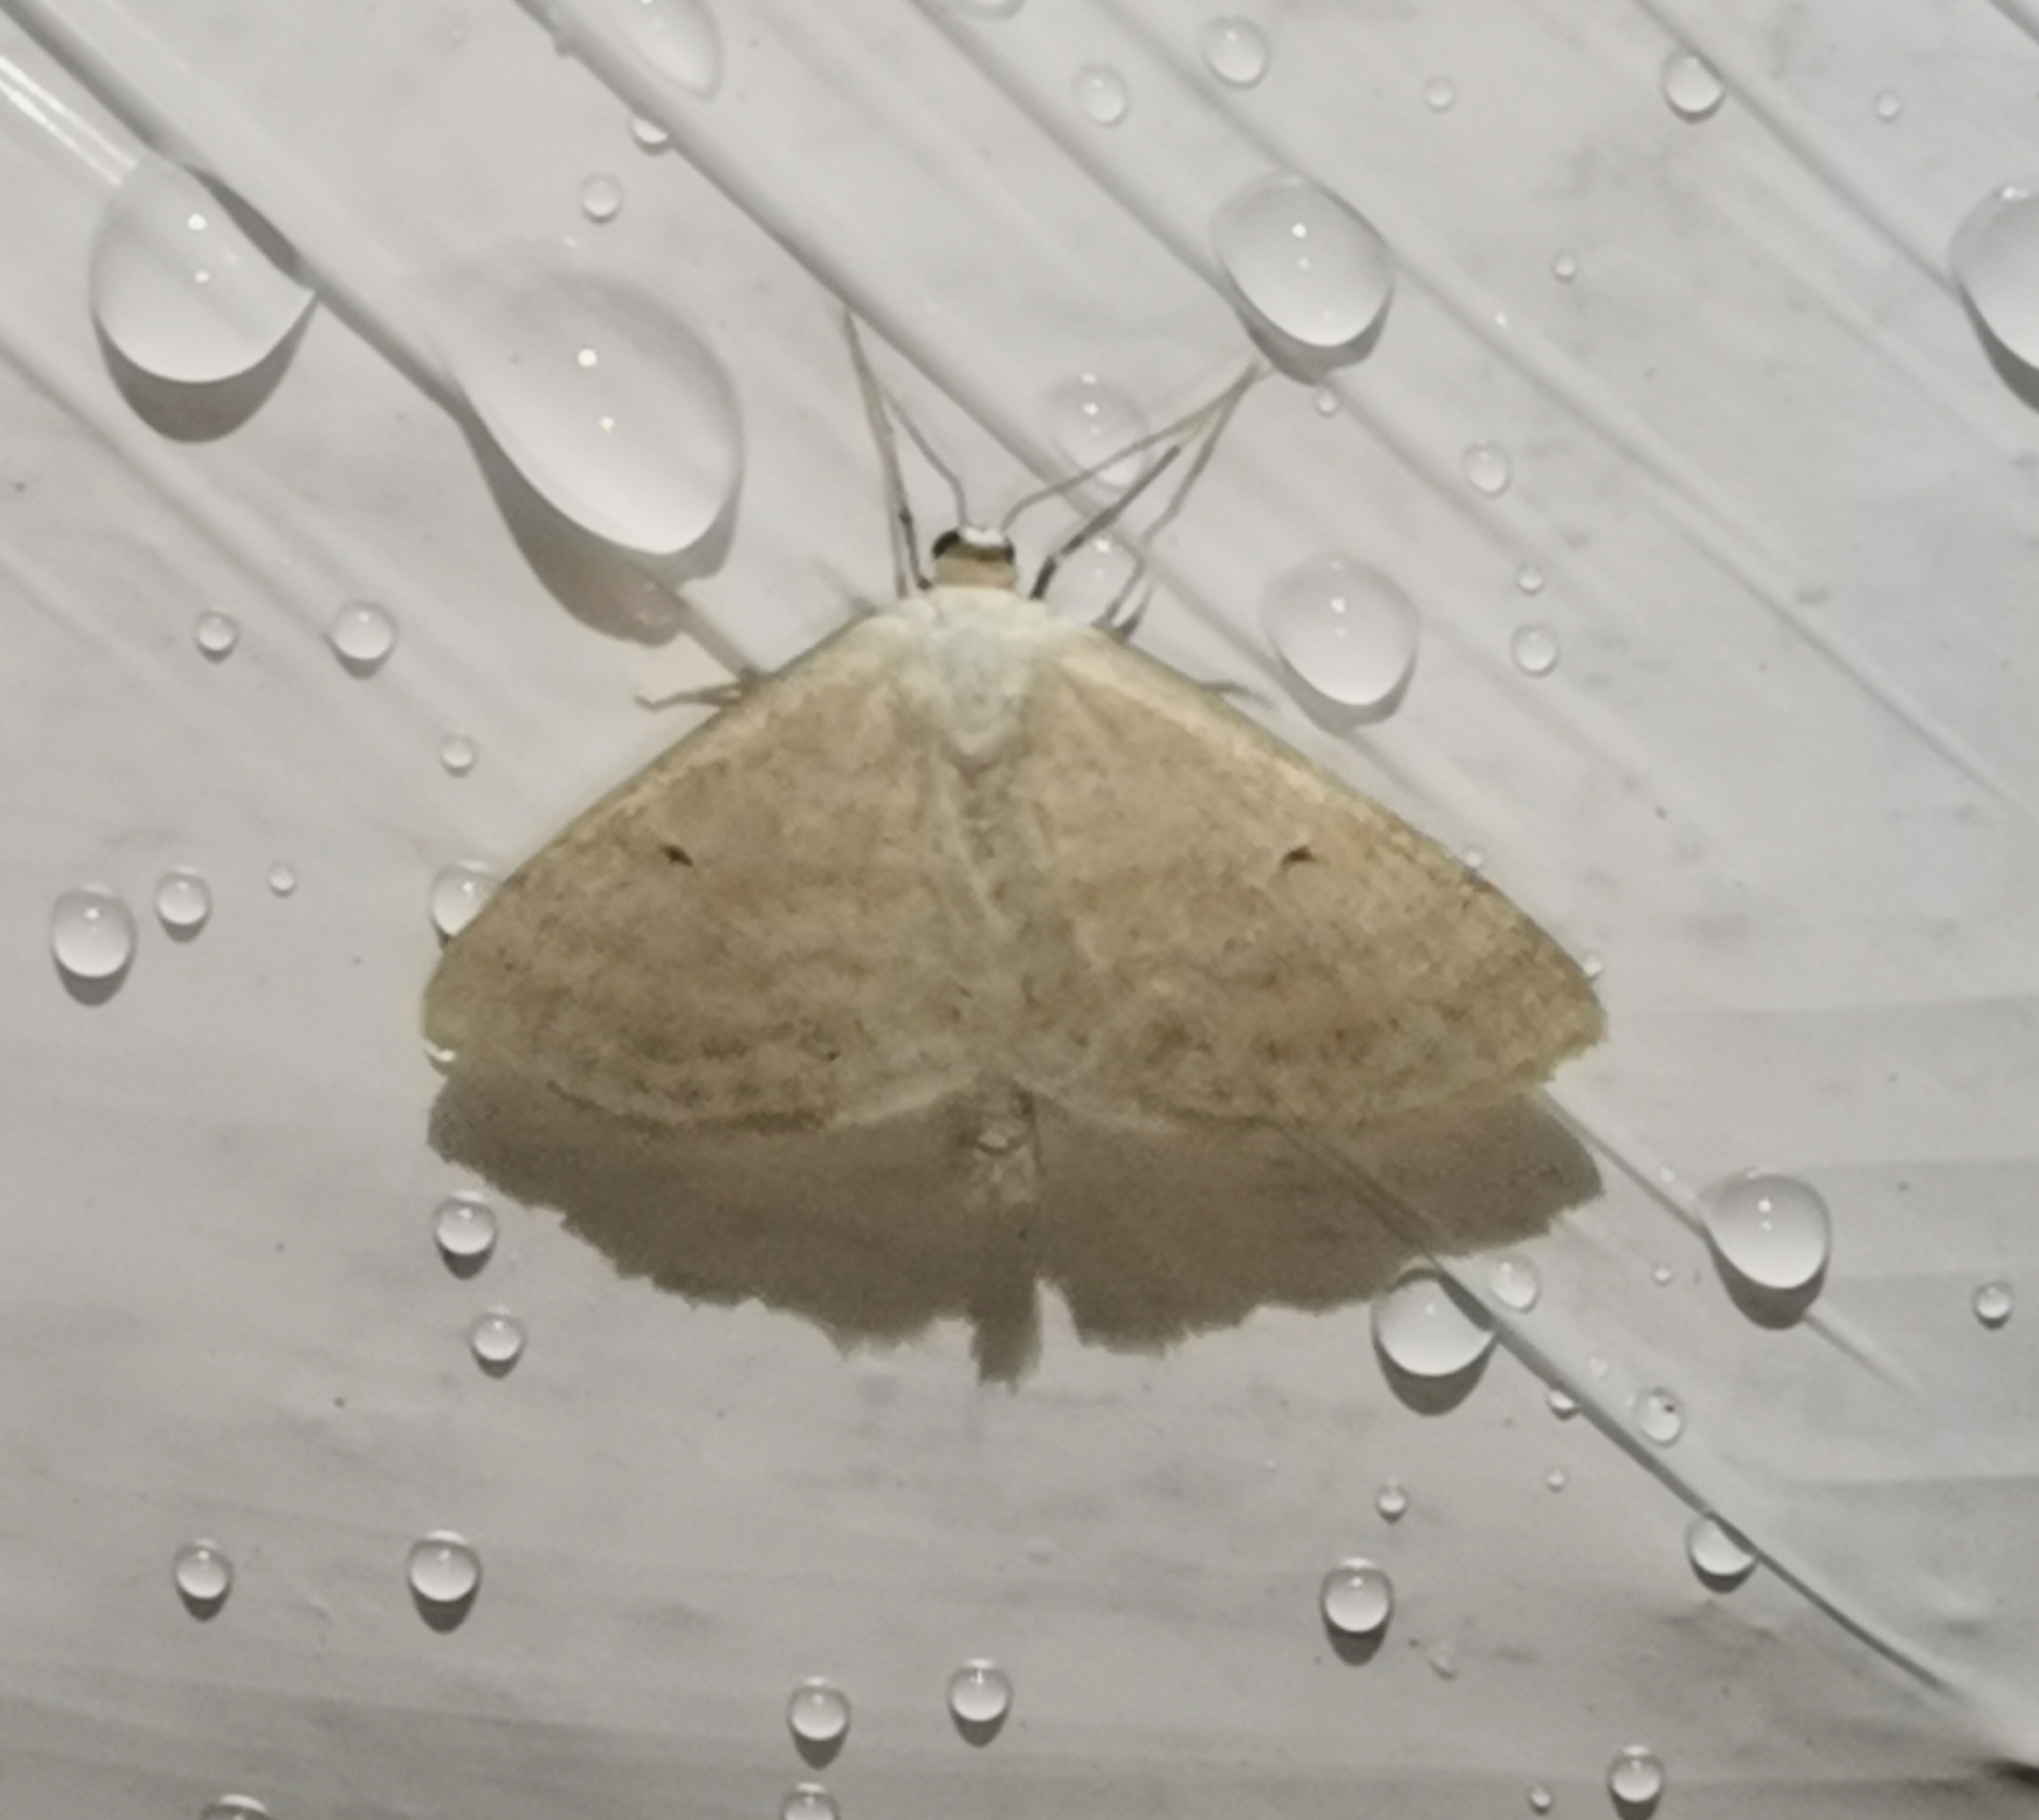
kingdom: Animalia
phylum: Arthropoda
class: Insecta
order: Lepidoptera
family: Geometridae
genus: Scopula
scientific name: Scopula immutata
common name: Lesser cream wave
